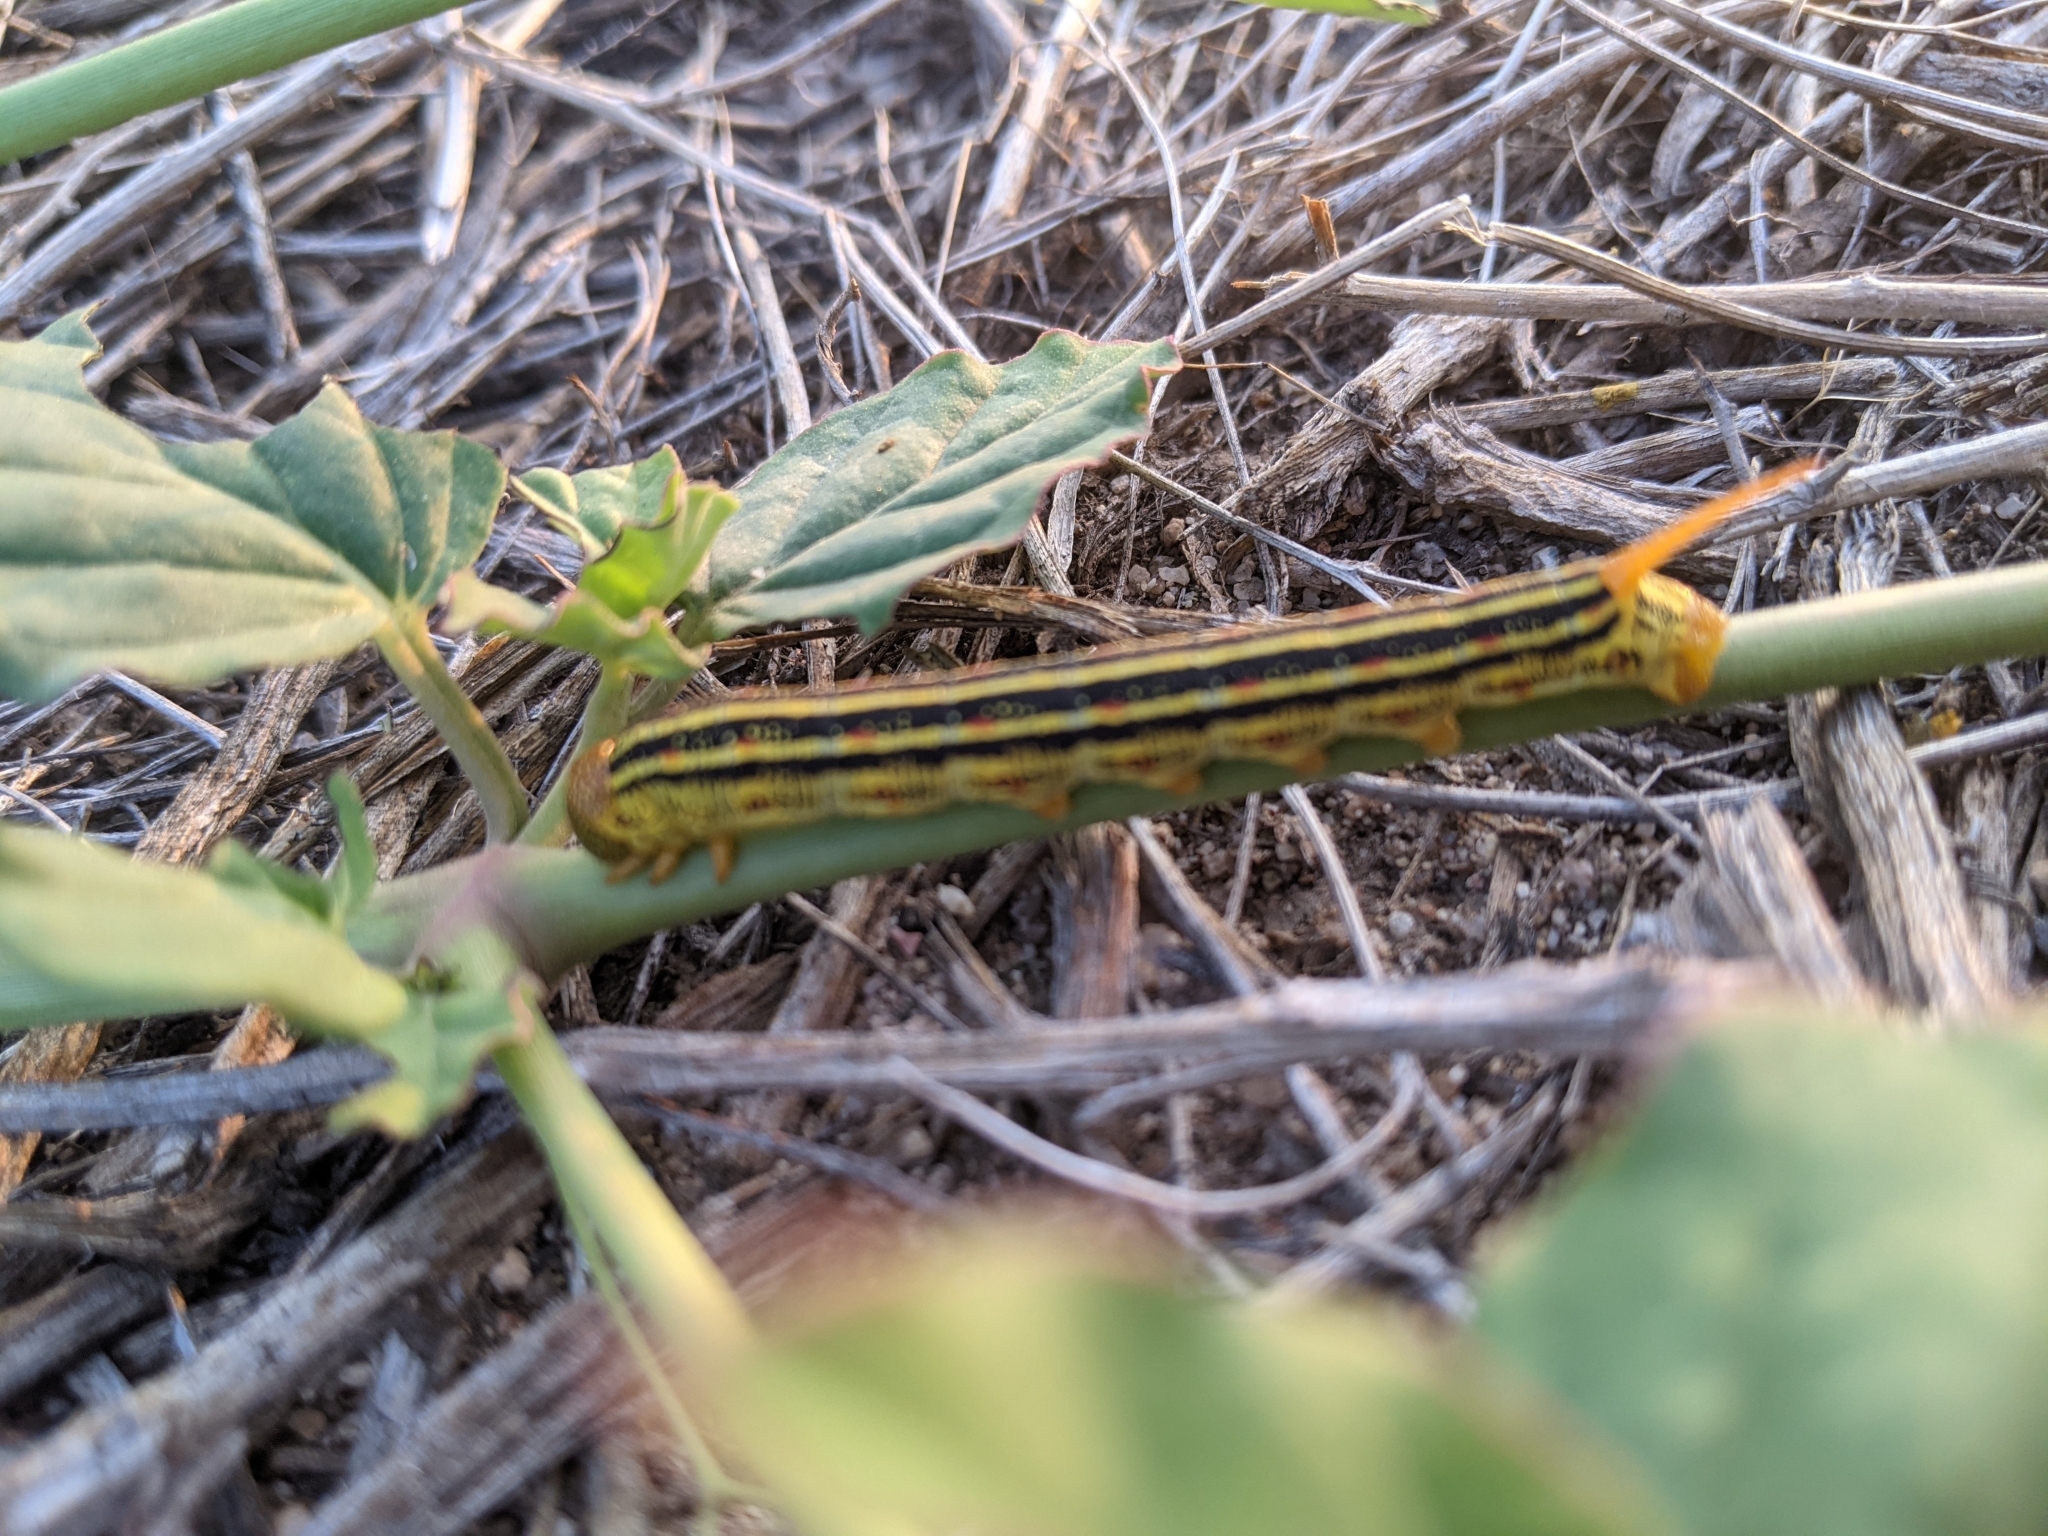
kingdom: Animalia
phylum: Arthropoda
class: Insecta
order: Lepidoptera
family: Sphingidae
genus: Hyles
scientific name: Hyles lineata
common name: White-lined sphinx
